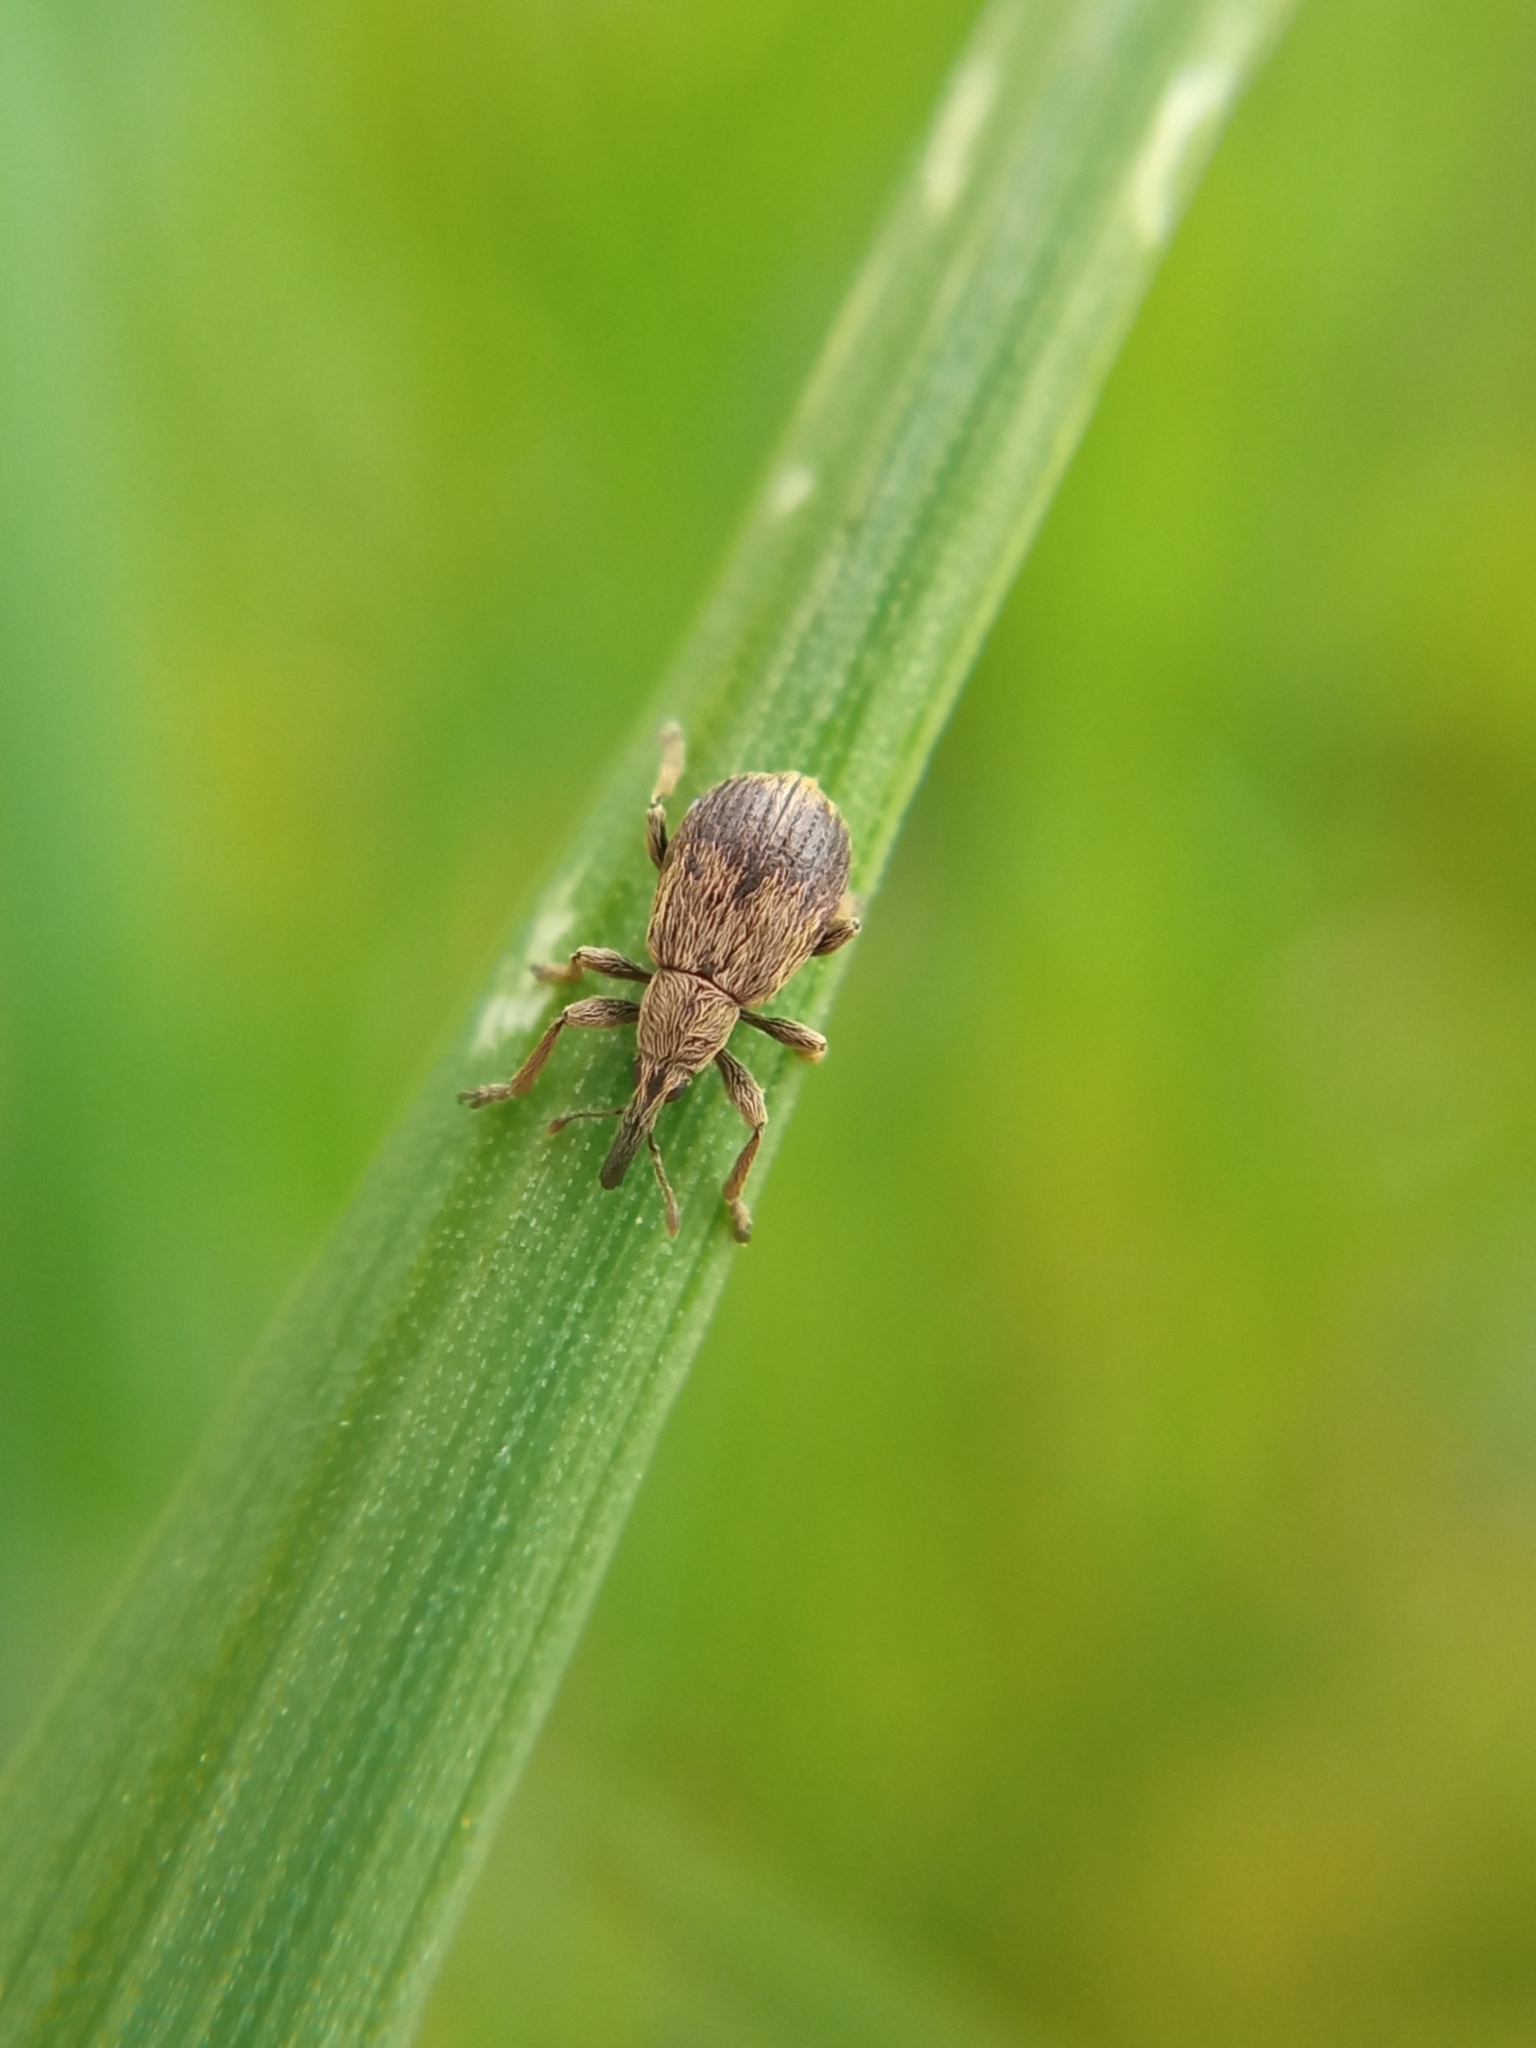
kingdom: Animalia
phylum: Arthropoda
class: Insecta
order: Coleoptera
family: Apionidae
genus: Trichopterapion
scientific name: Trichopterapion holosericeum
